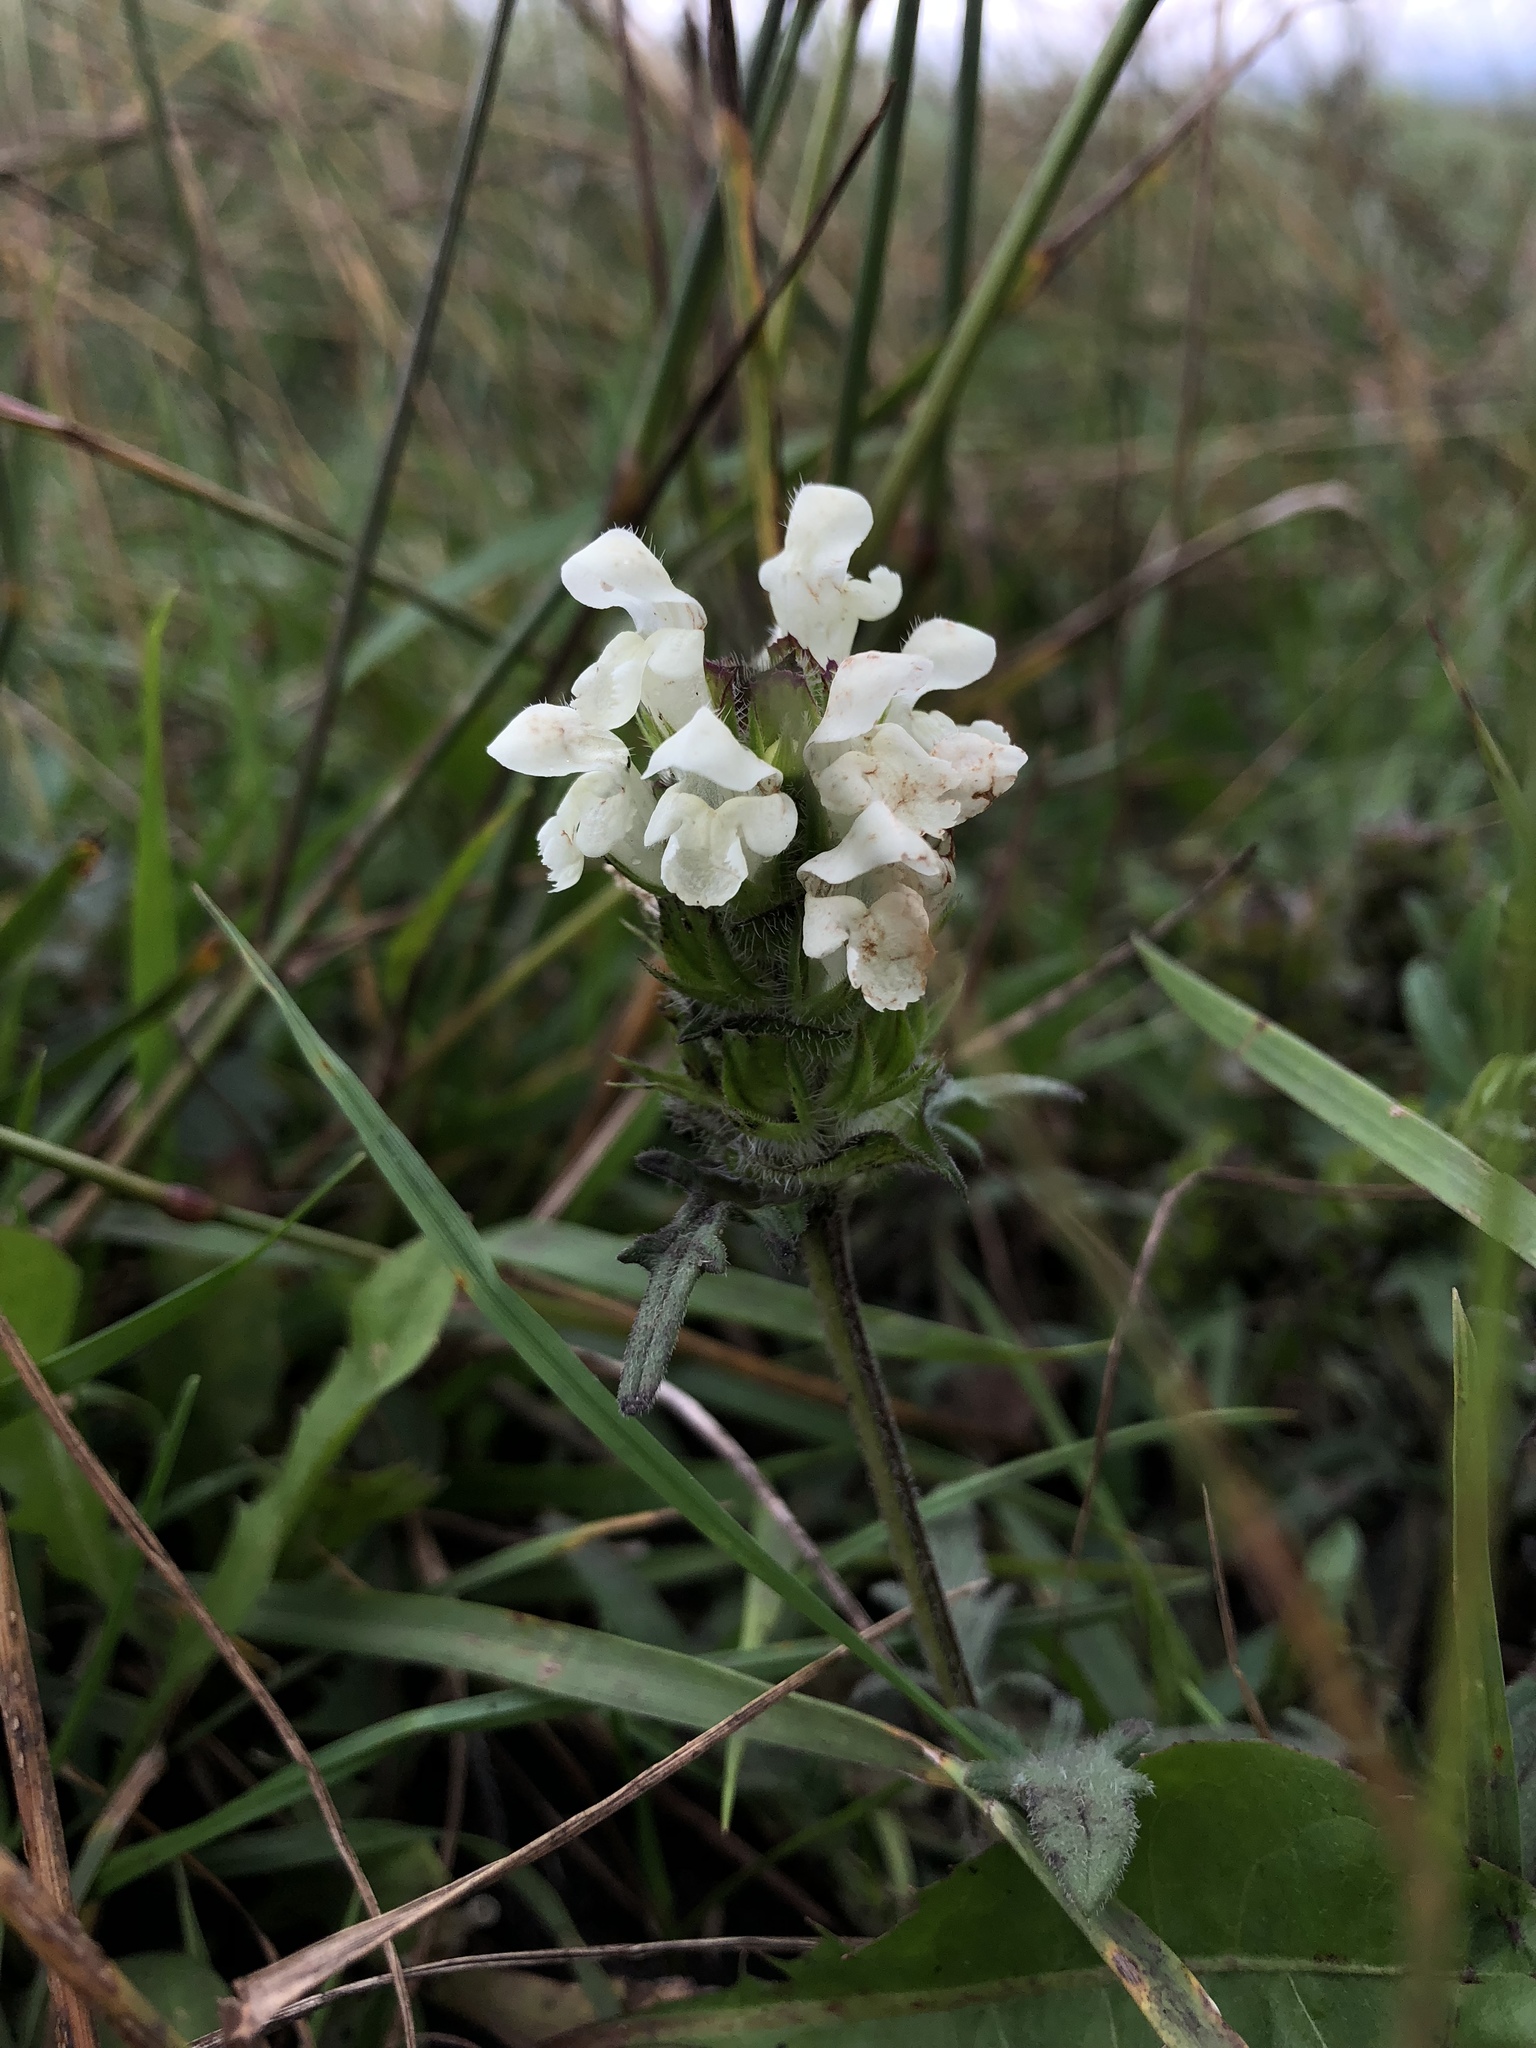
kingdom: Plantae
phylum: Tracheophyta
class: Magnoliopsida
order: Lamiales
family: Lamiaceae
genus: Prunella
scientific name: Prunella laciniata
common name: Cut-leaved selfheal
